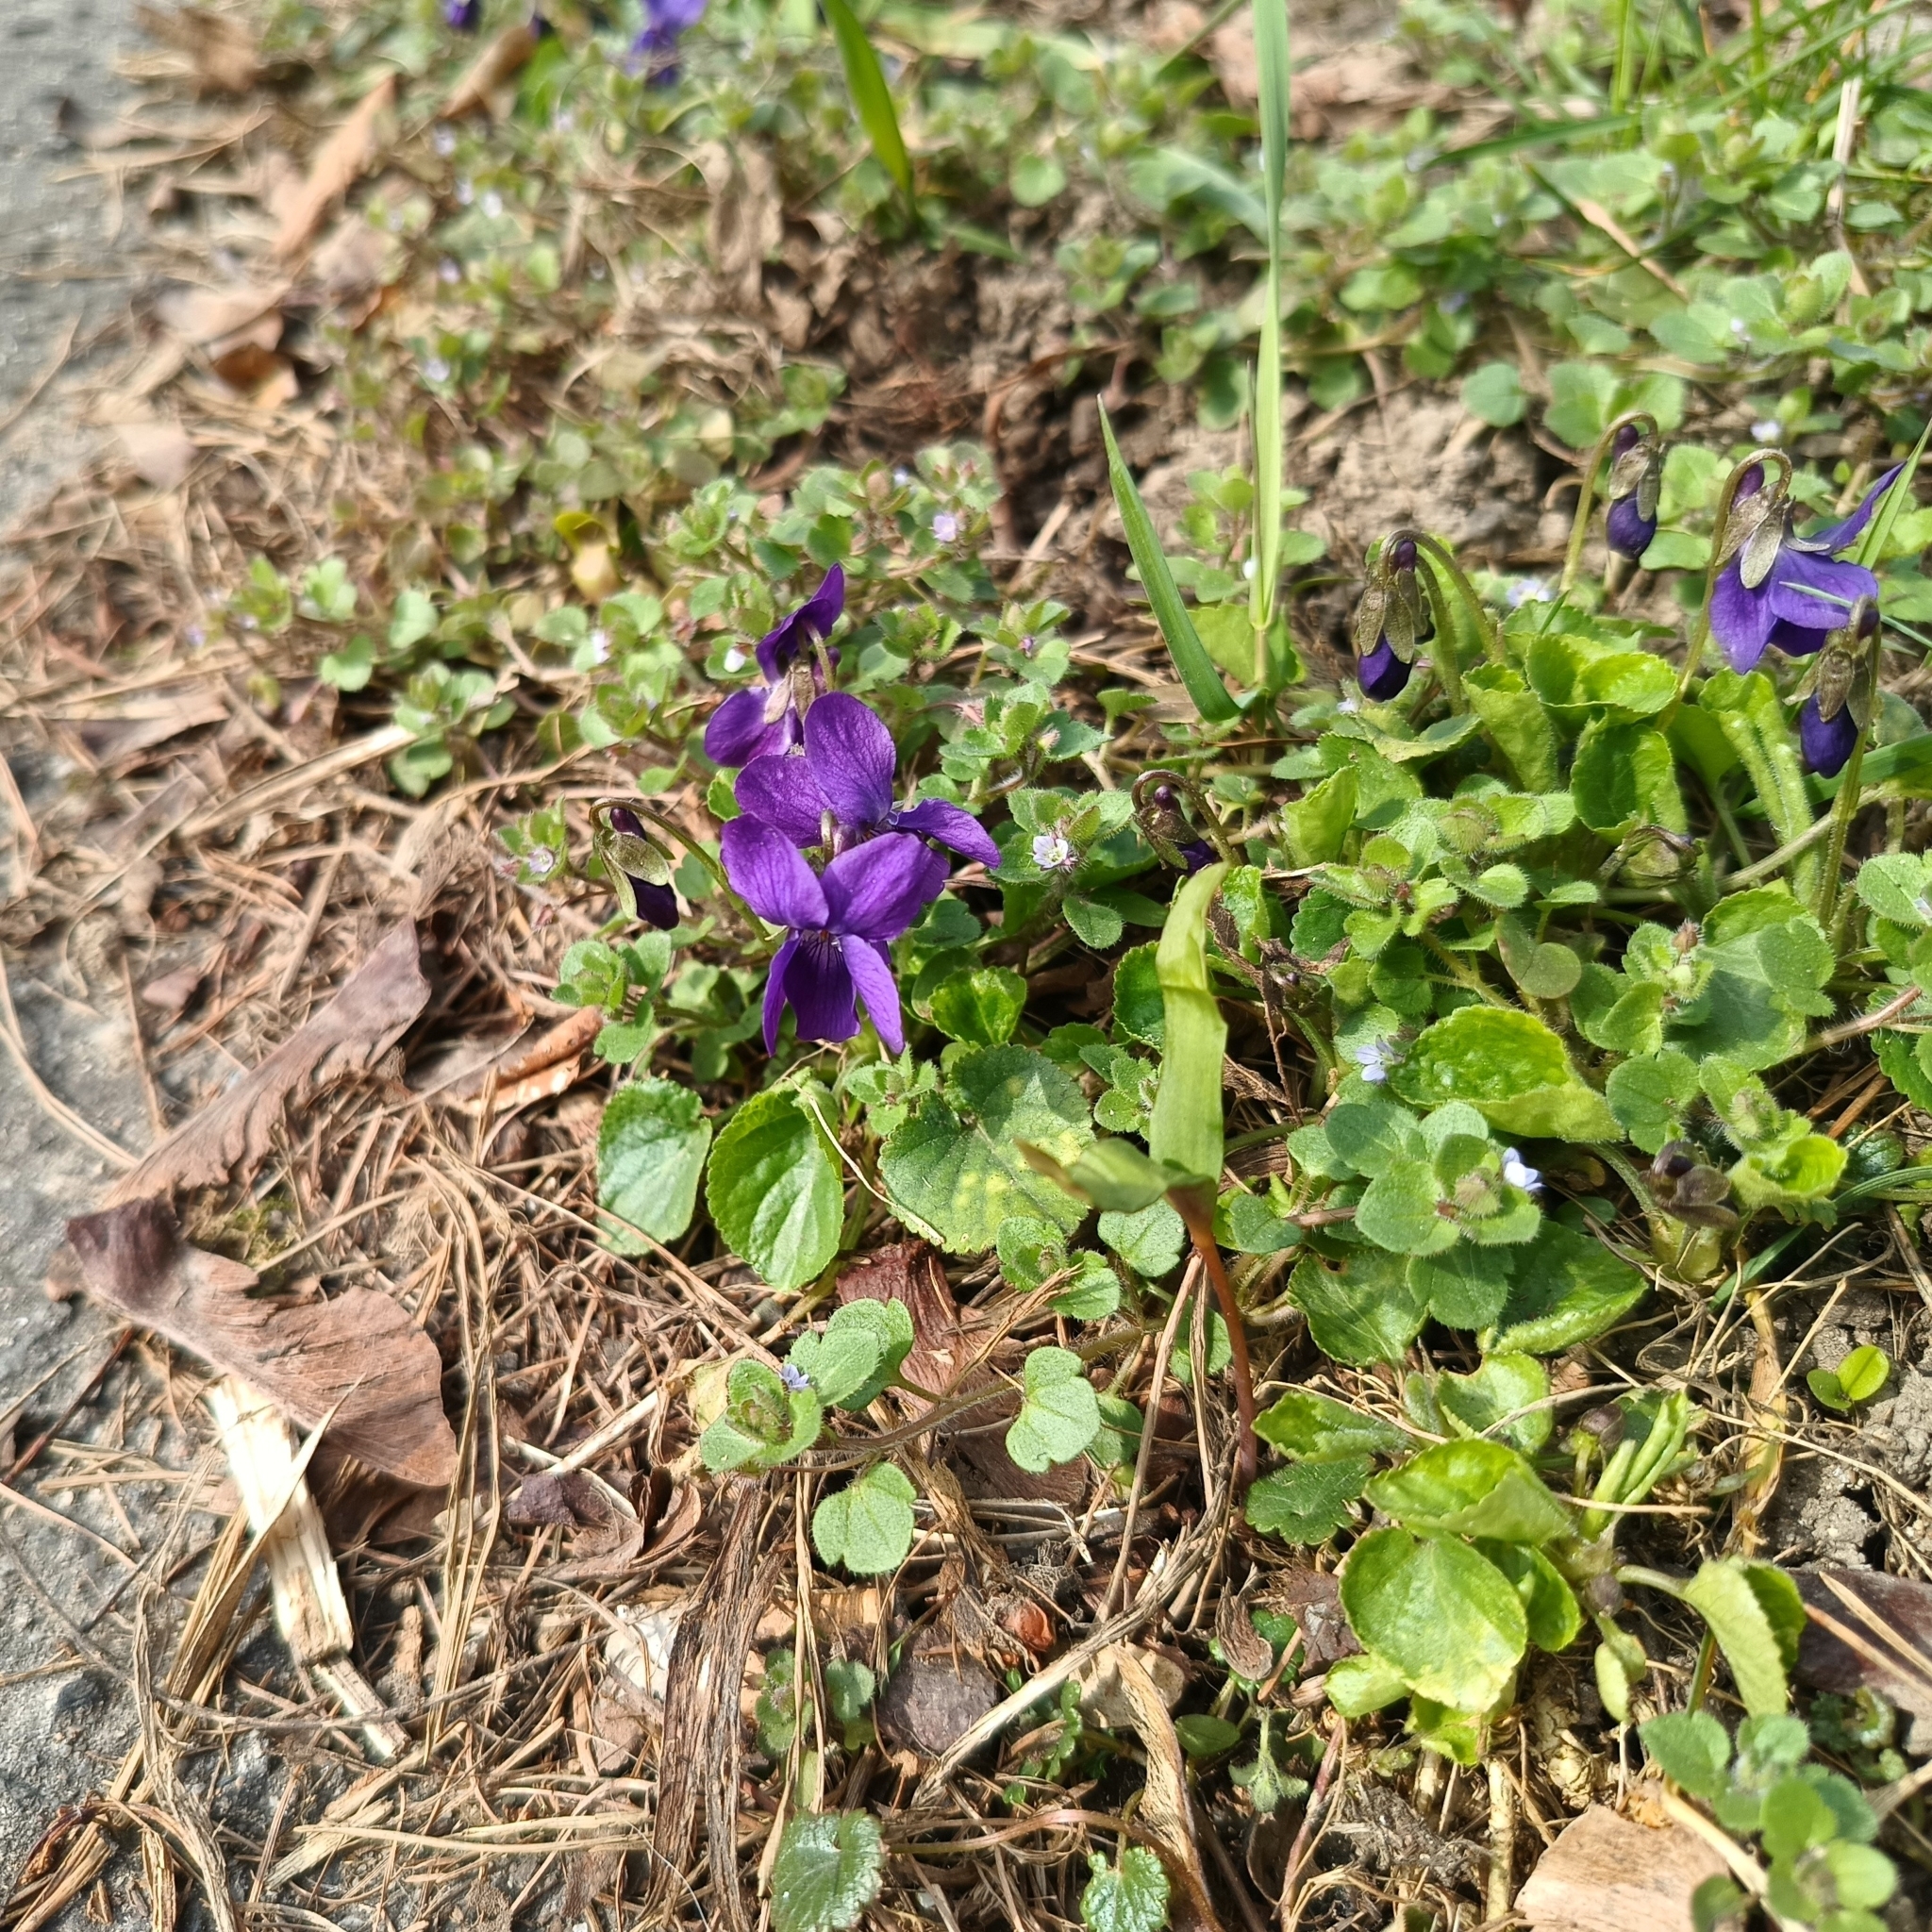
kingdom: Plantae
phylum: Tracheophyta
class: Magnoliopsida
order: Malpighiales
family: Violaceae
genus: Viola
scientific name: Viola odorata
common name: Sweet violet
